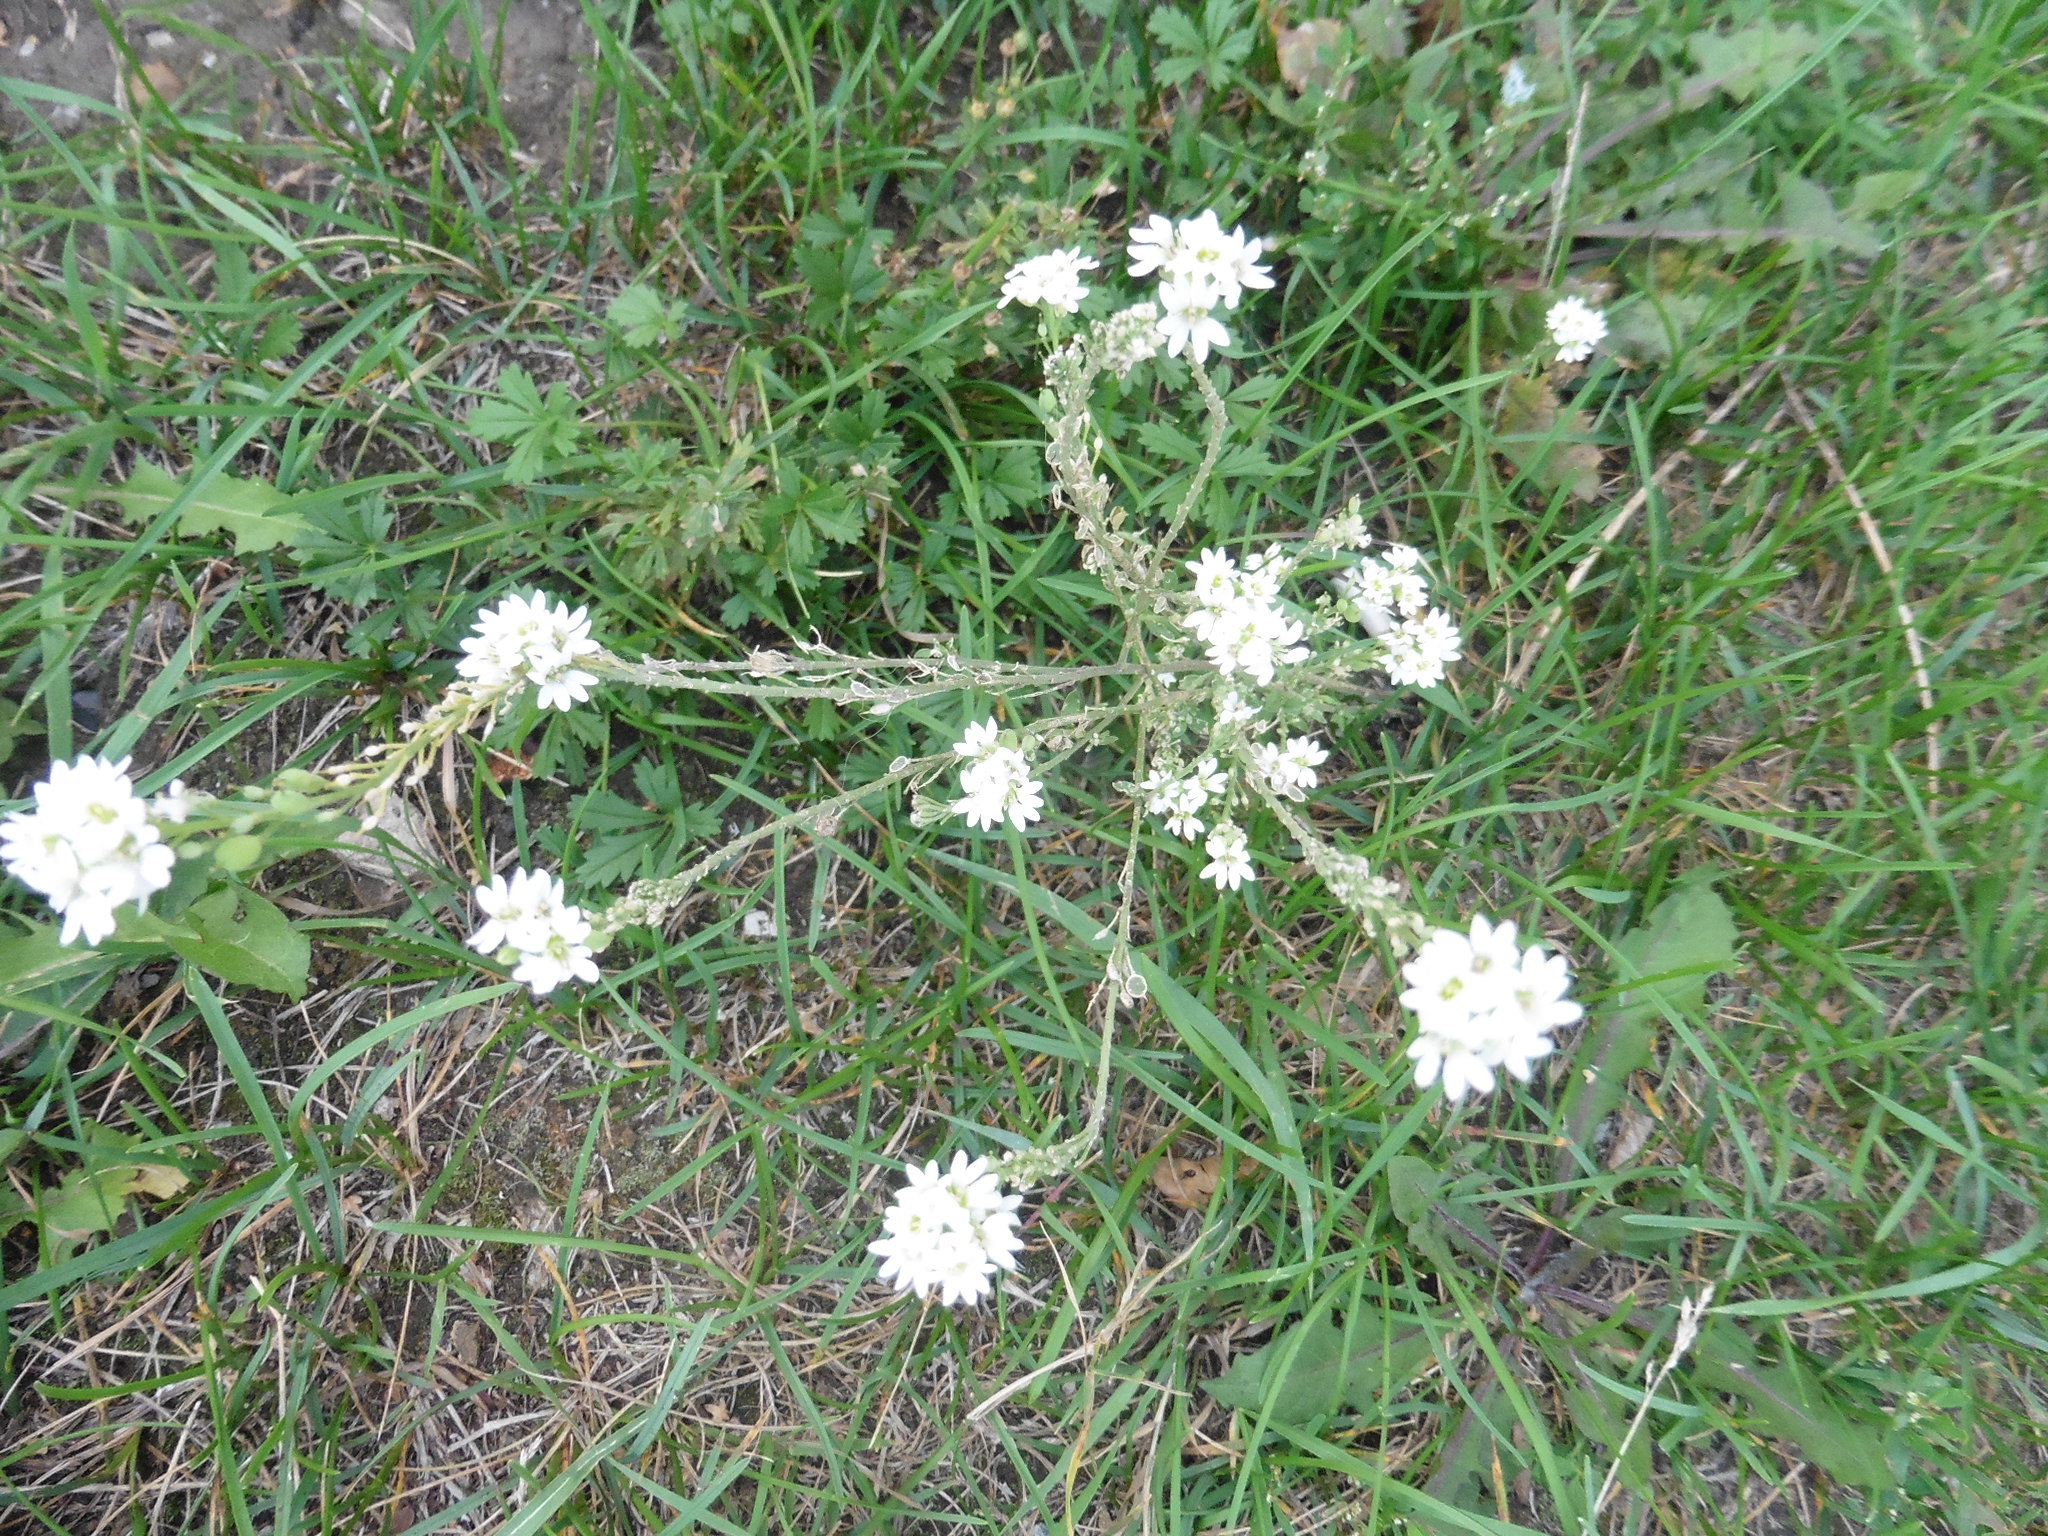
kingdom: Plantae
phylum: Tracheophyta
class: Magnoliopsida
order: Brassicales
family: Brassicaceae
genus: Berteroa
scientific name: Berteroa incana
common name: Hoary alison
